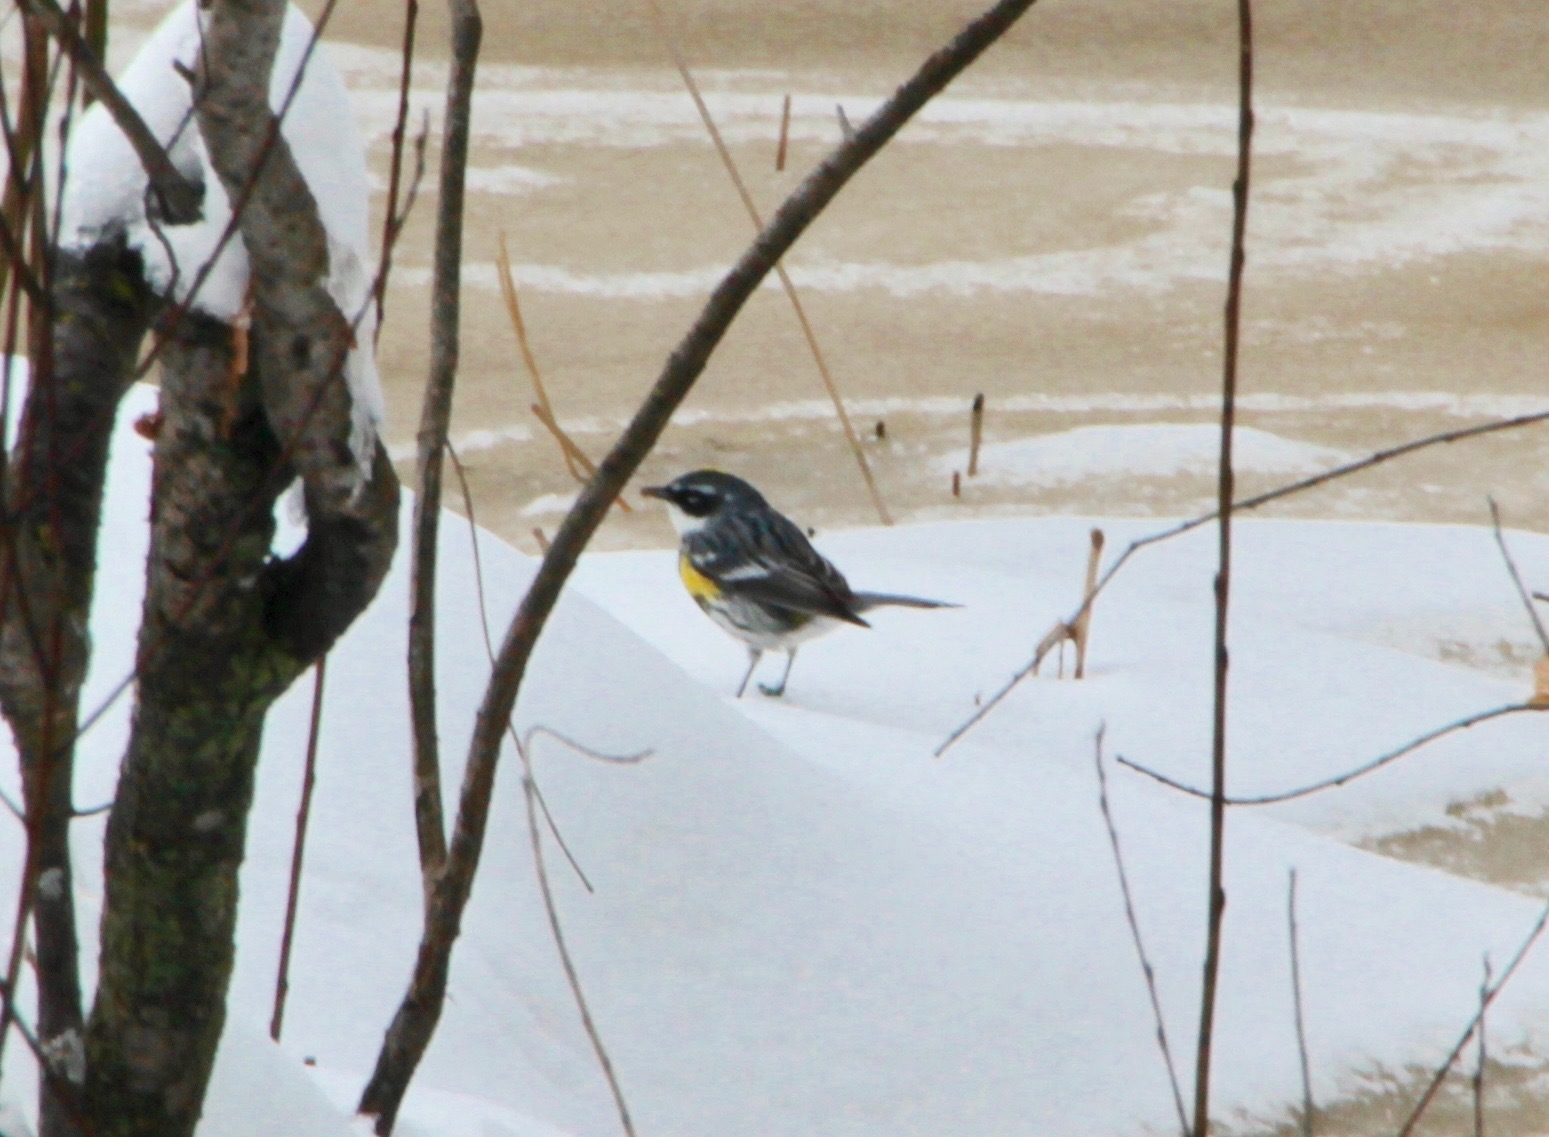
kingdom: Animalia
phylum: Chordata
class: Aves
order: Passeriformes
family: Parulidae
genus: Setophaga
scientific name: Setophaga coronata
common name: Myrtle warbler
